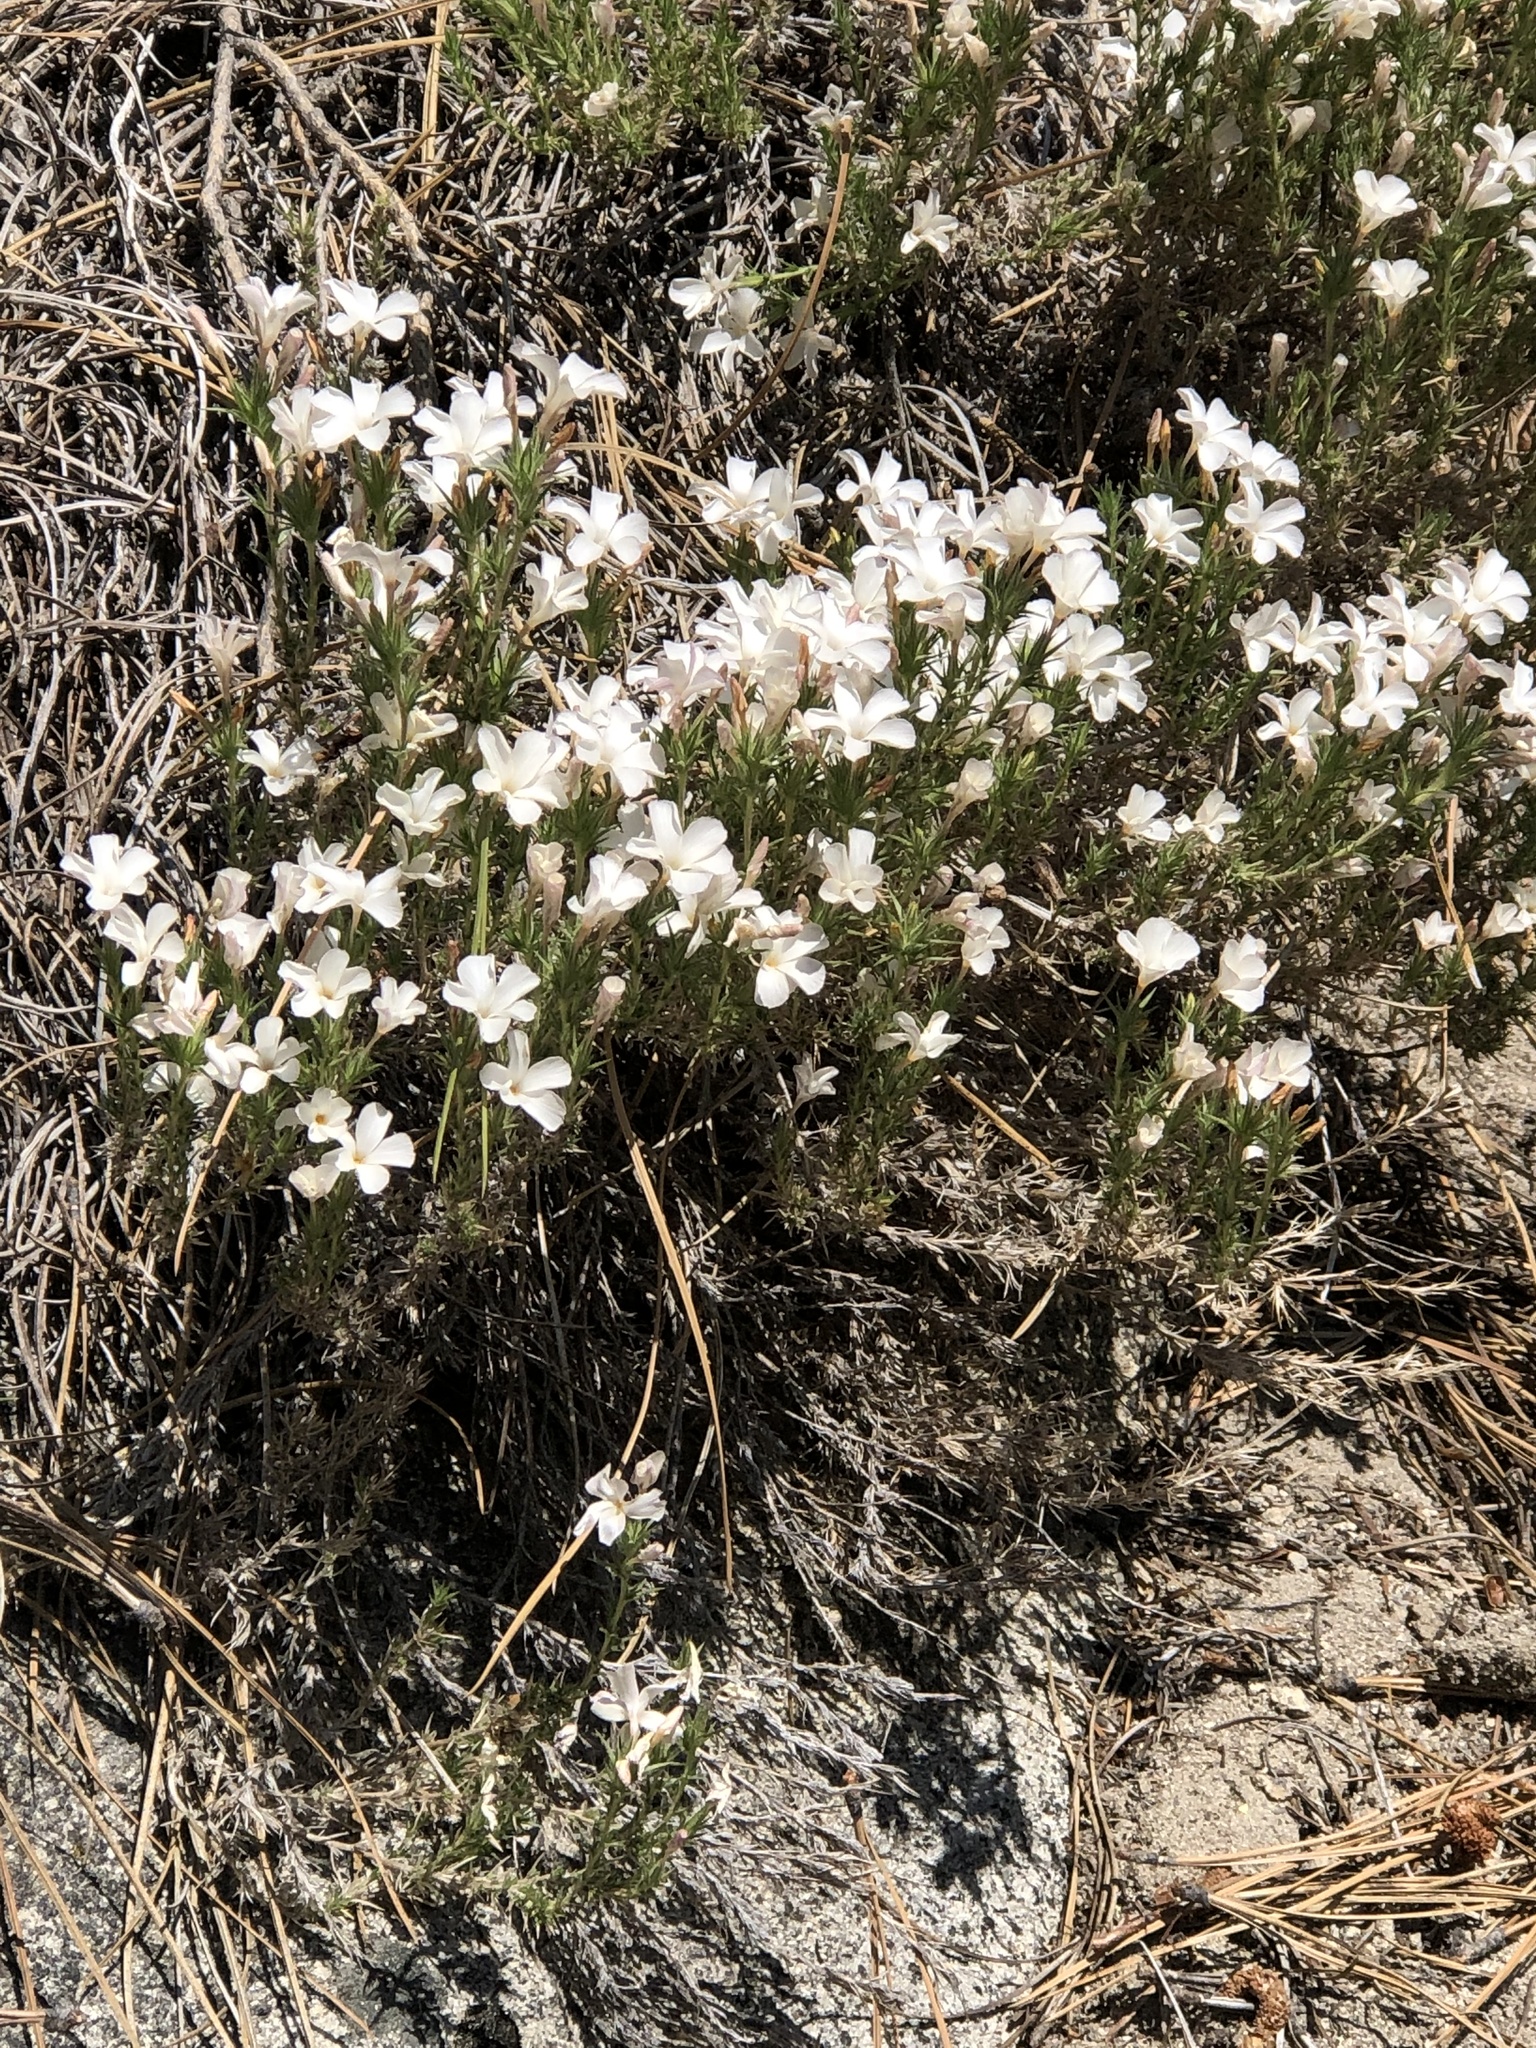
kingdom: Plantae
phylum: Tracheophyta
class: Magnoliopsida
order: Ericales
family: Polemoniaceae
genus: Linanthus
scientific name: Linanthus pungens
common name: Granite prickly phlox
